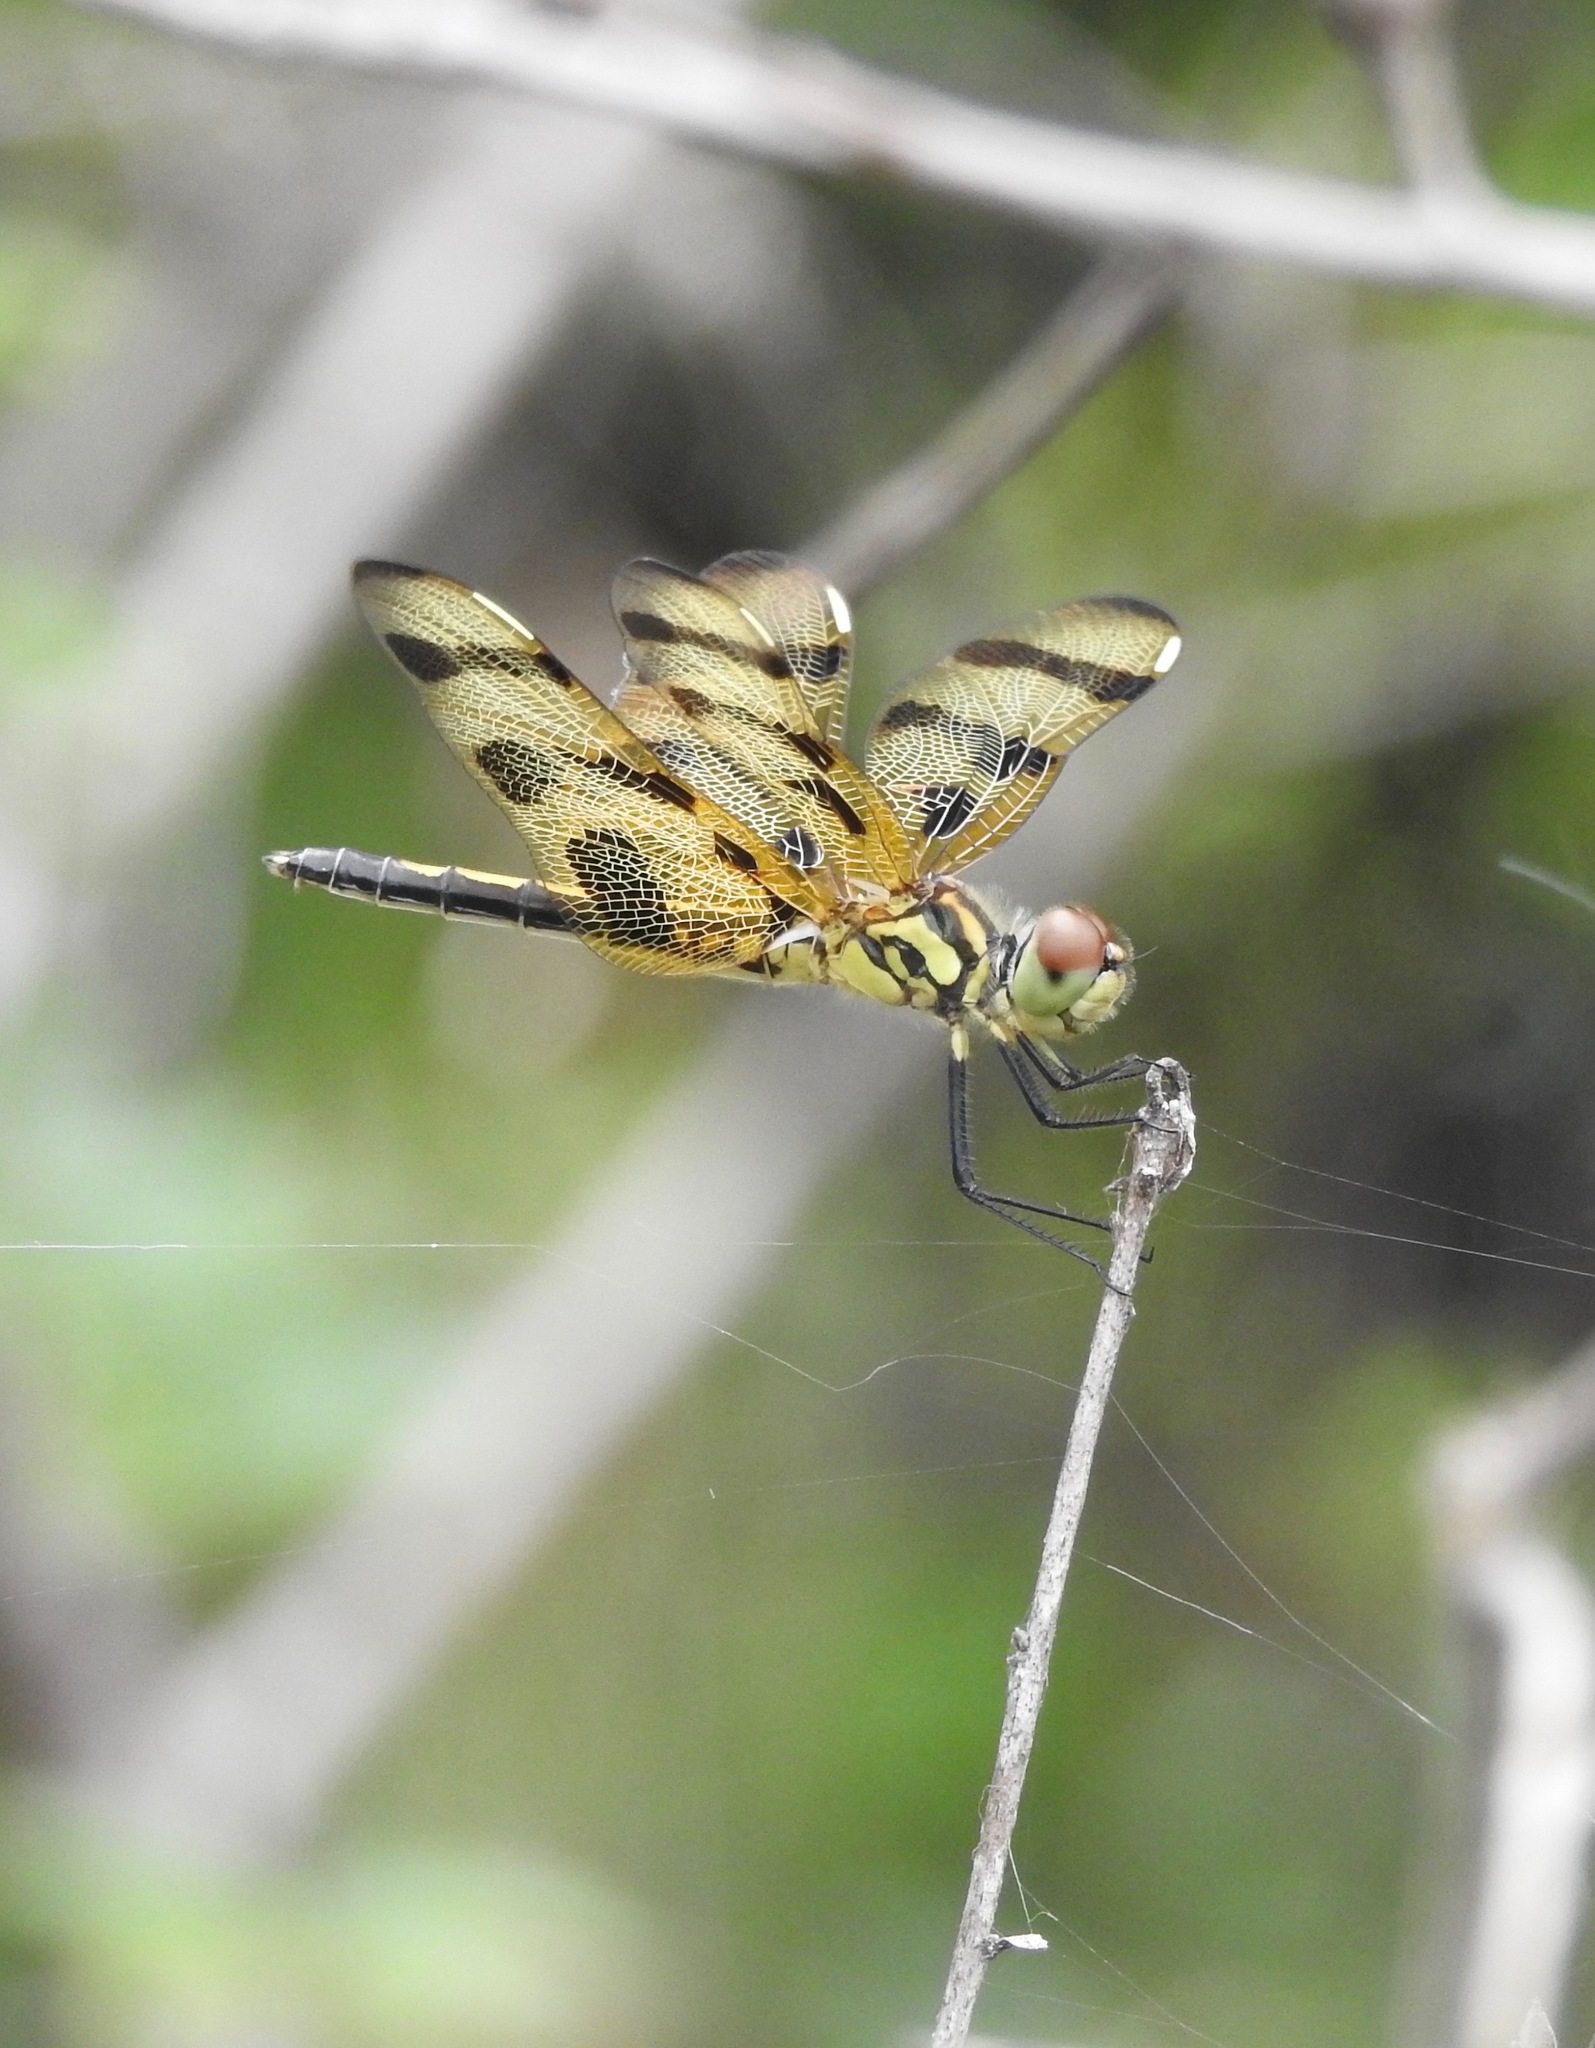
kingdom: Animalia
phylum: Arthropoda
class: Insecta
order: Odonata
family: Libellulidae
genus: Celithemis
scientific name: Celithemis eponina
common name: Halloween pennant
